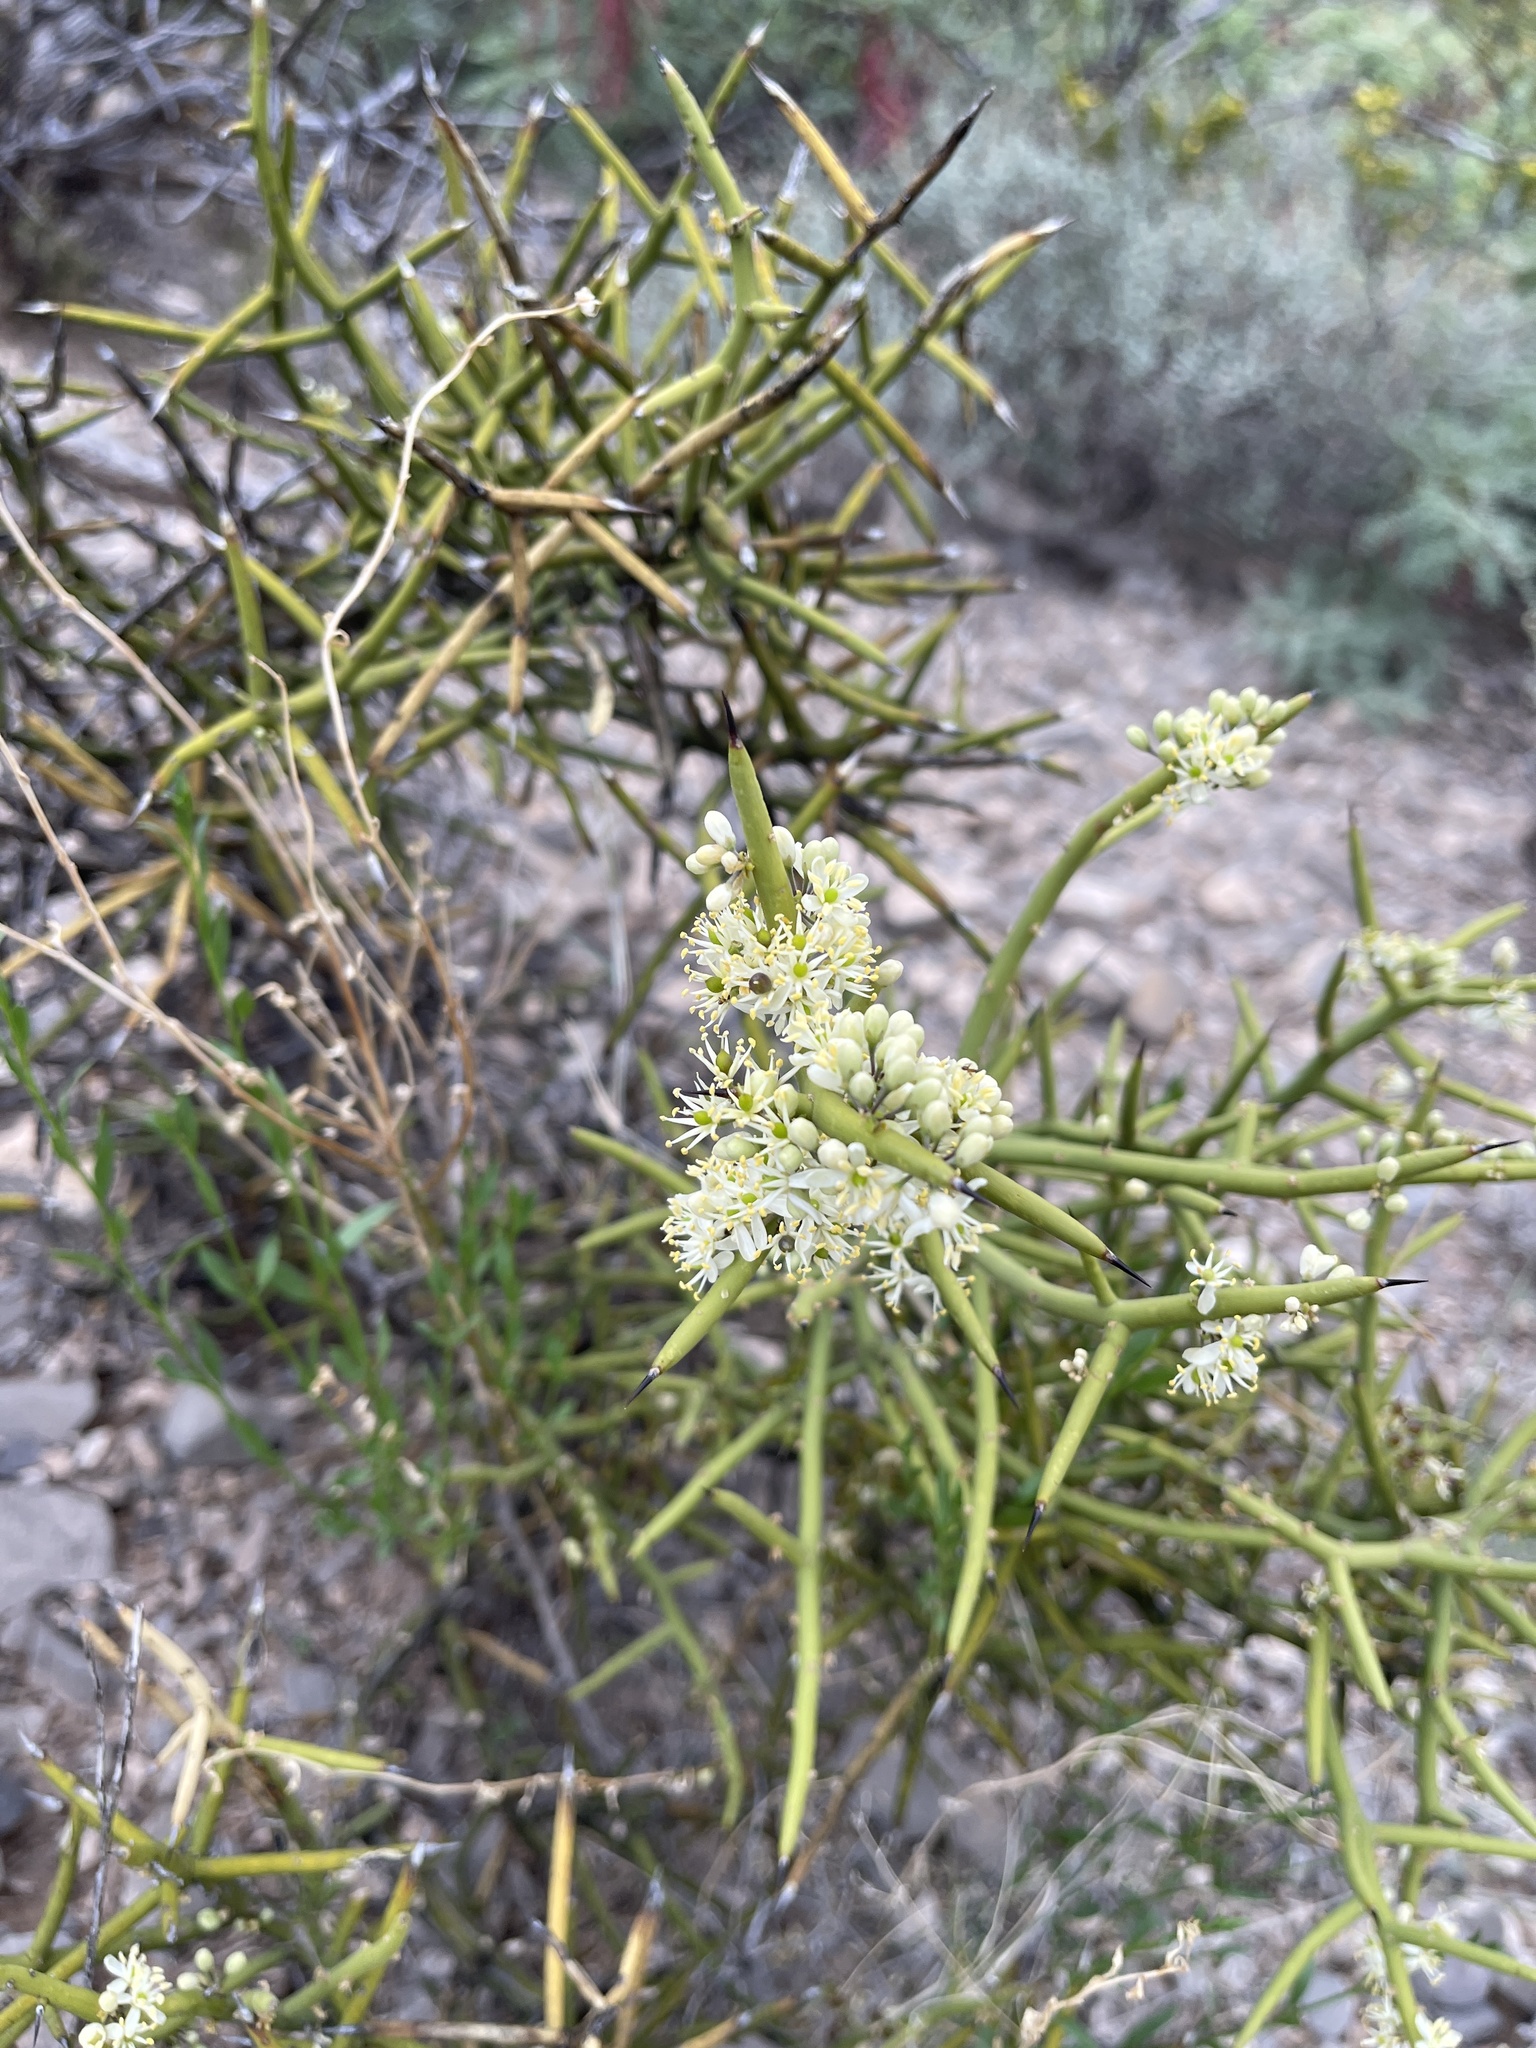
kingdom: Plantae
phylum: Tracheophyta
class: Magnoliopsida
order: Brassicales
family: Koeberliniaceae
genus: Koeberlinia
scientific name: Koeberlinia spinosa
